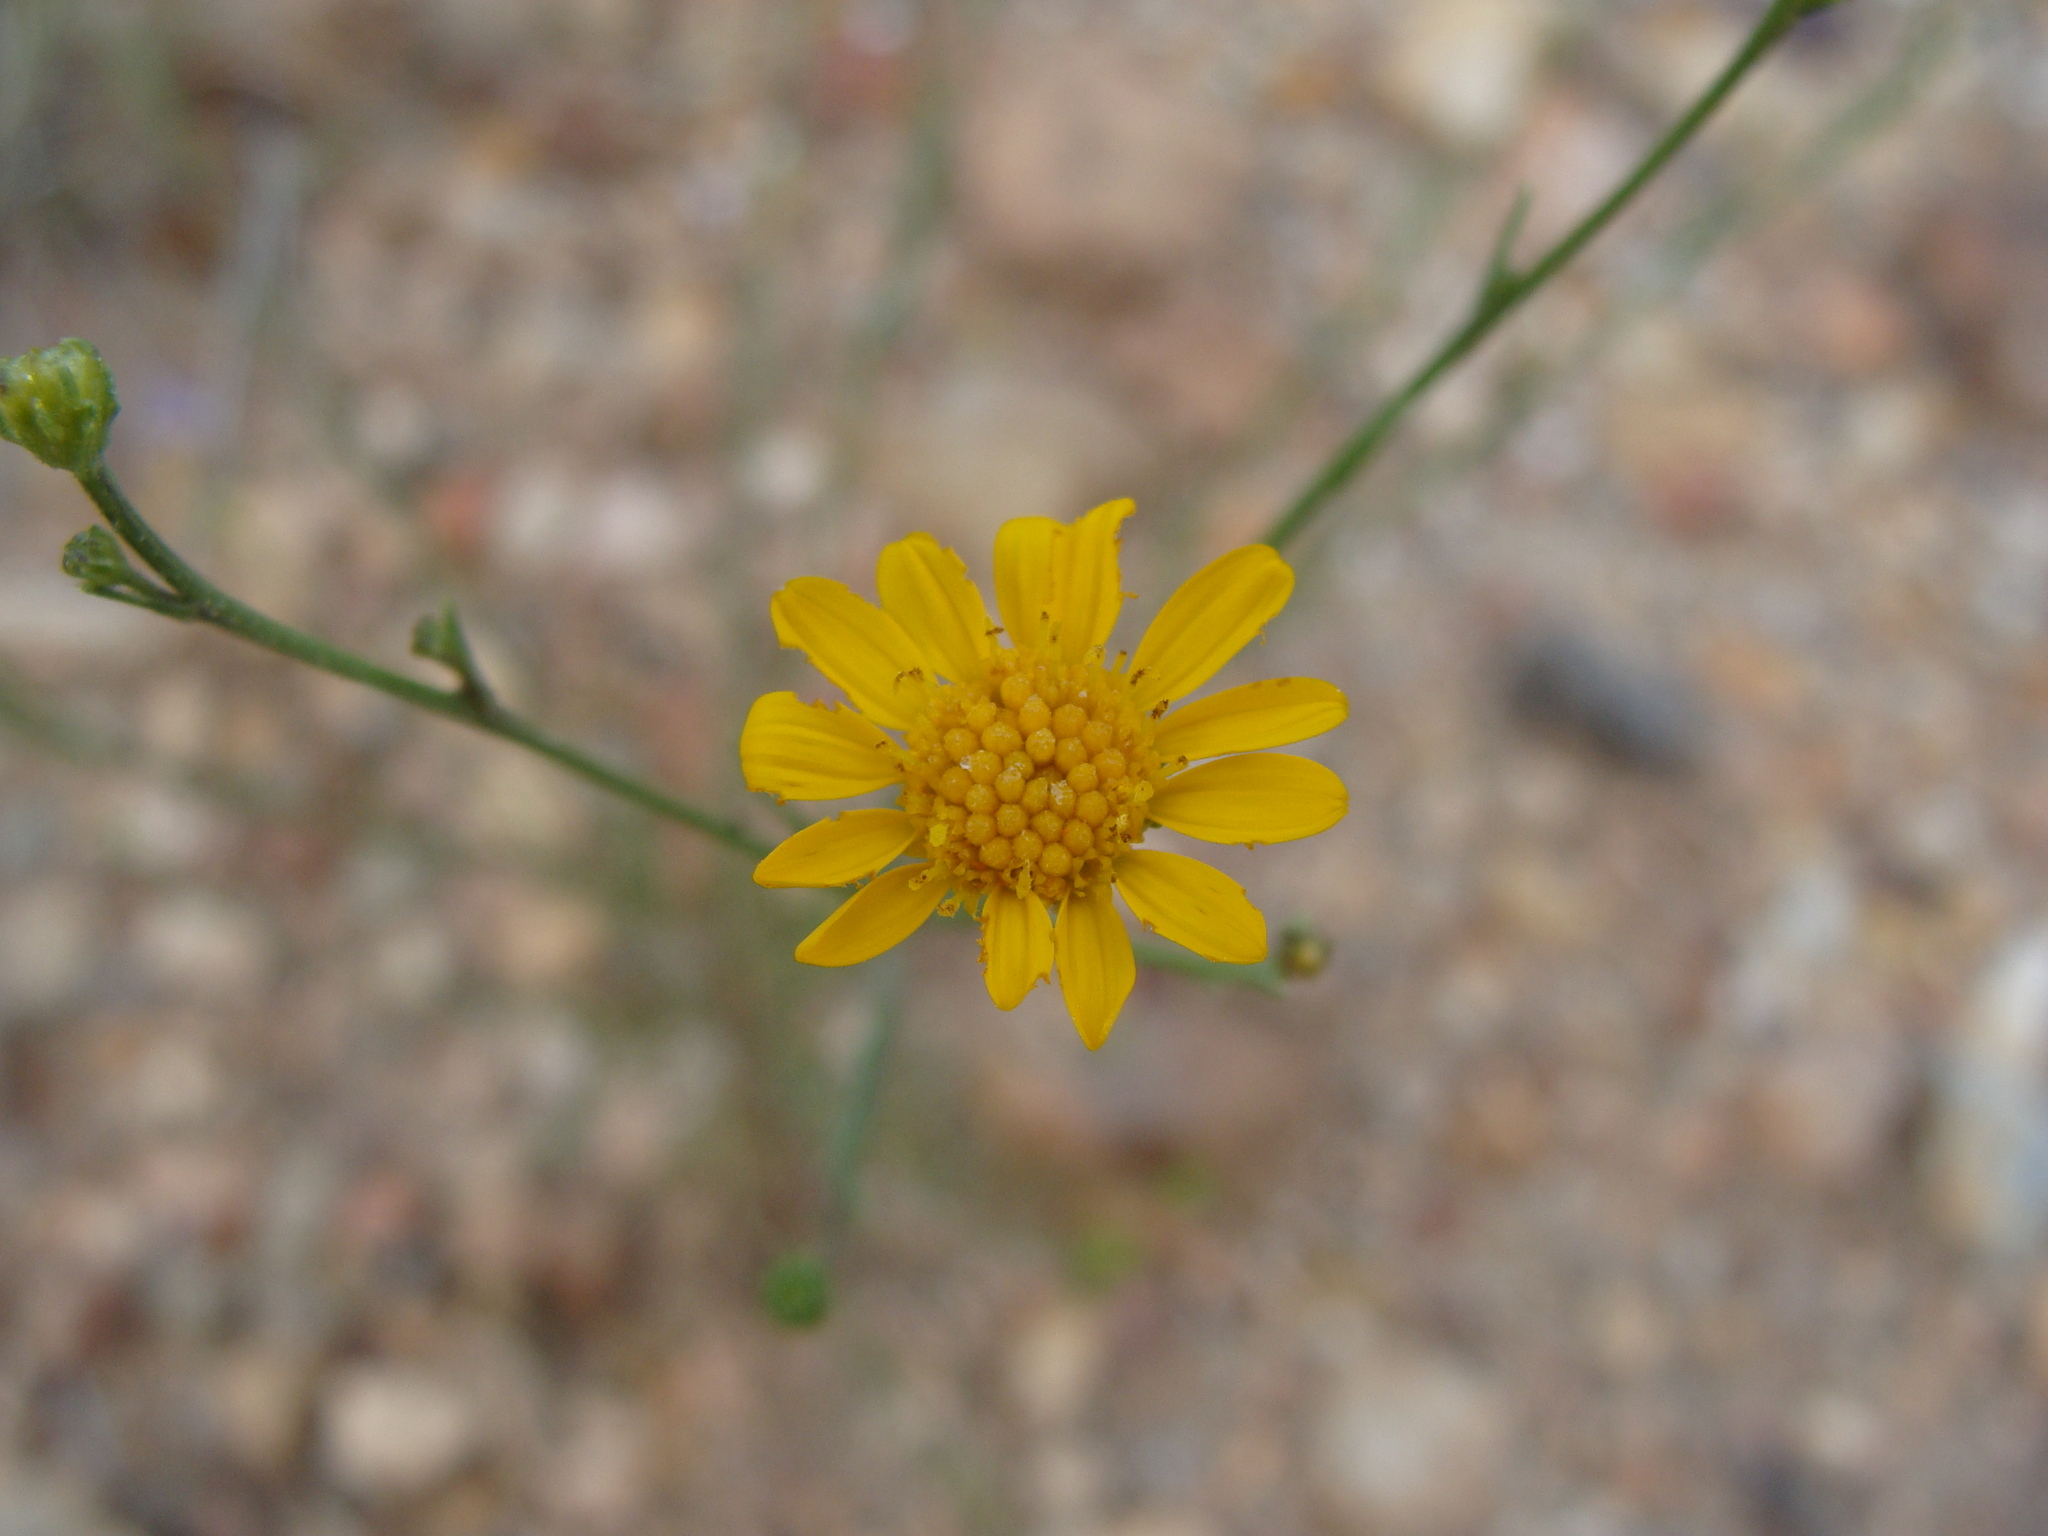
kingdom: Plantae
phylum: Tracheophyta
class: Magnoliopsida
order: Asterales
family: Asteraceae
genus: Xanthisma
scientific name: Xanthisma gracile
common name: Slender goldenweed
